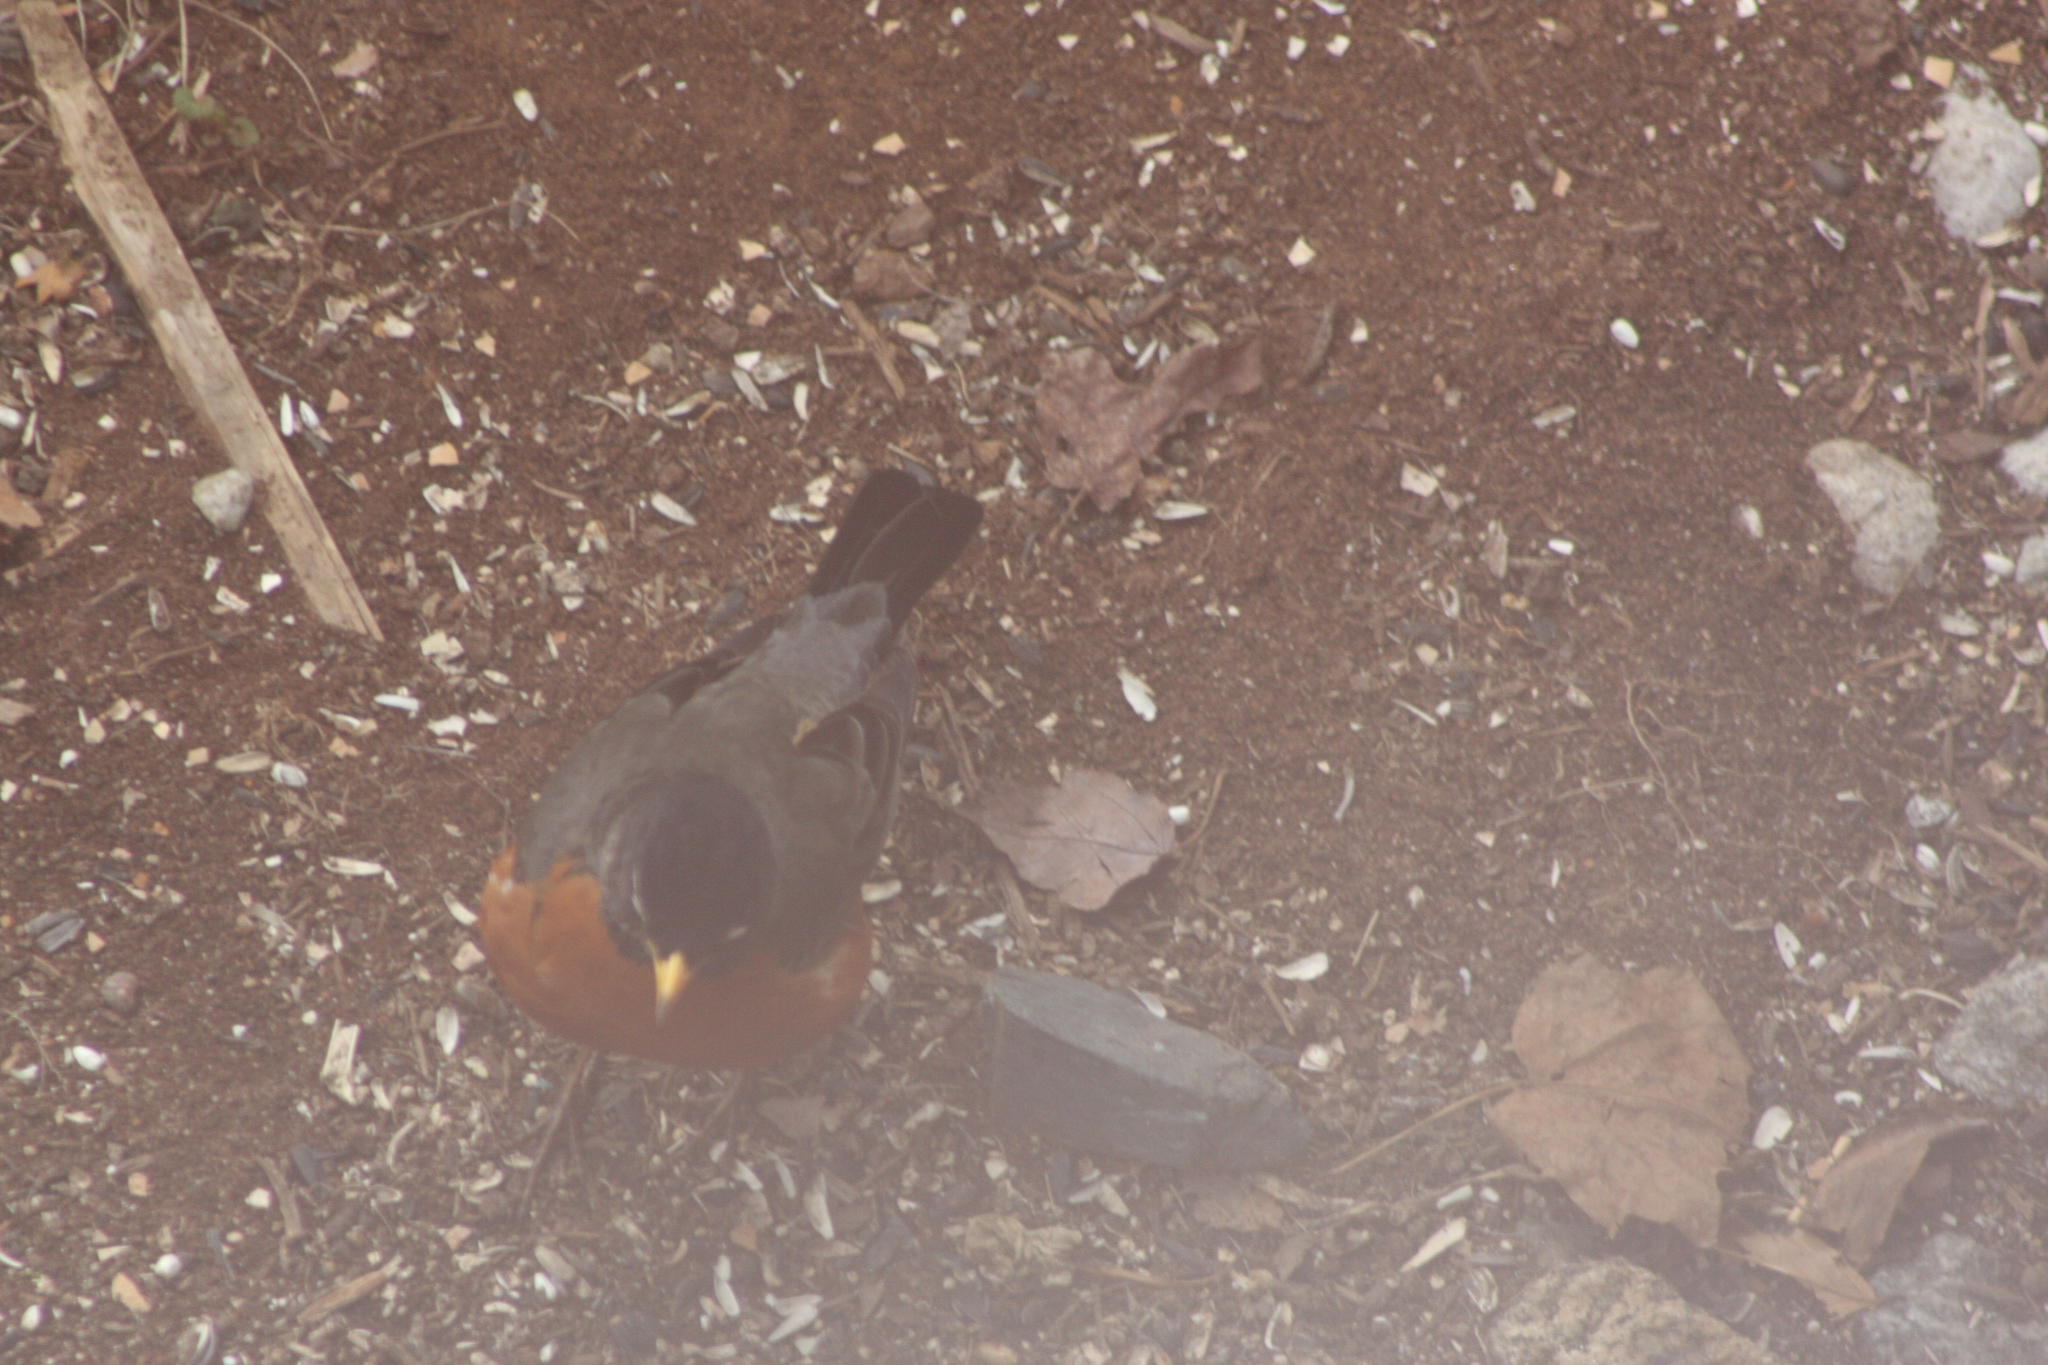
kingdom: Animalia
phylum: Chordata
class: Aves
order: Passeriformes
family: Turdidae
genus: Turdus
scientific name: Turdus migratorius
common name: American robin
